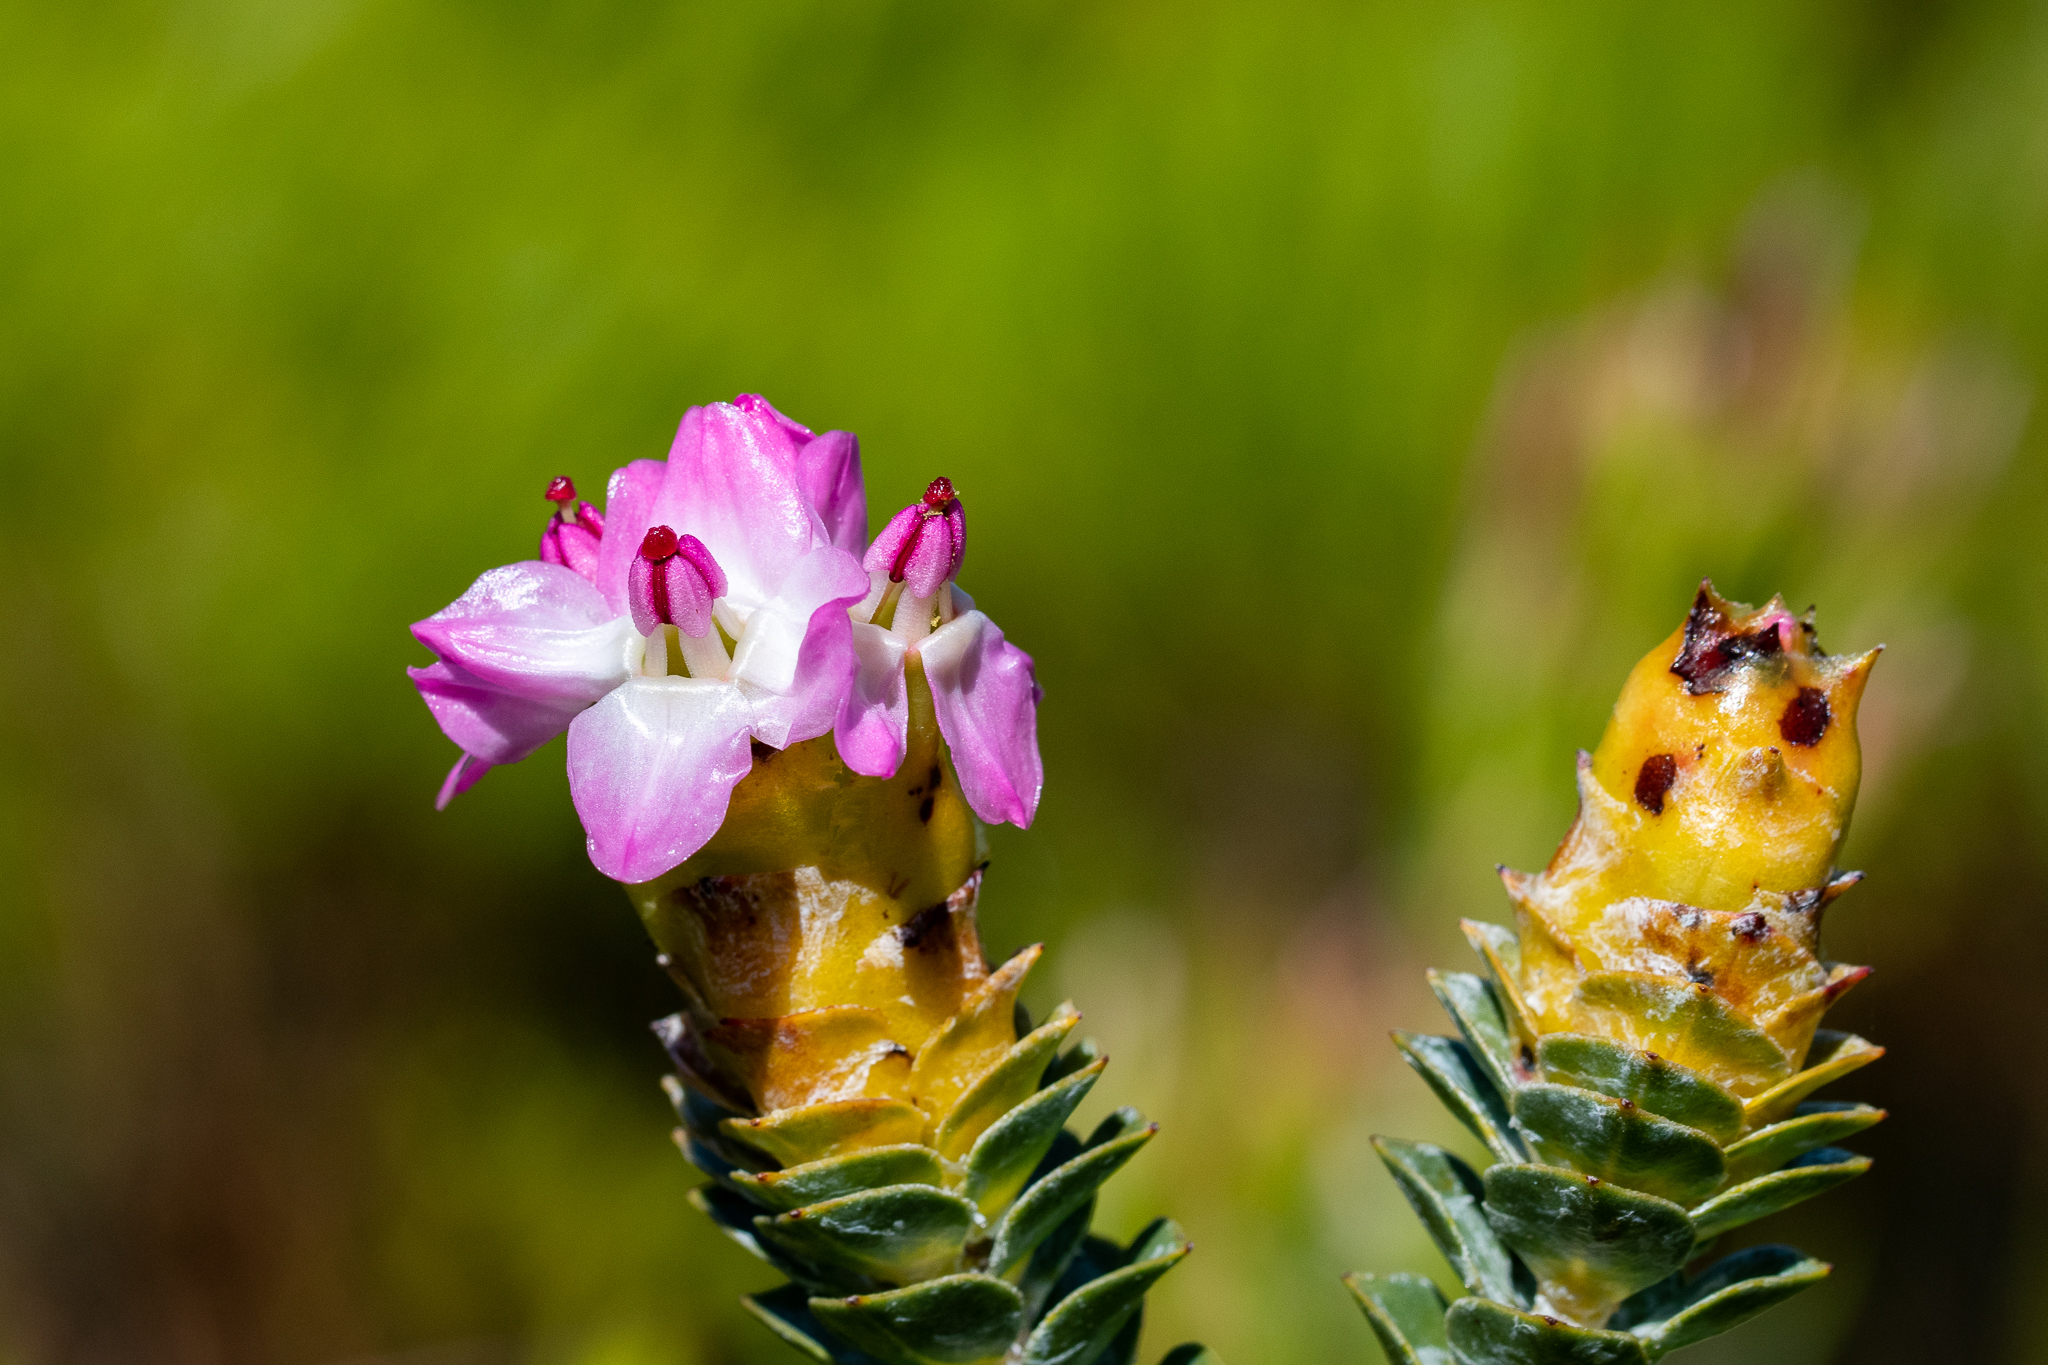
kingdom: Plantae
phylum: Tracheophyta
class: Magnoliopsida
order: Myrtales
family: Penaeaceae
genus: Saltera
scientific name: Saltera sarcocolla
